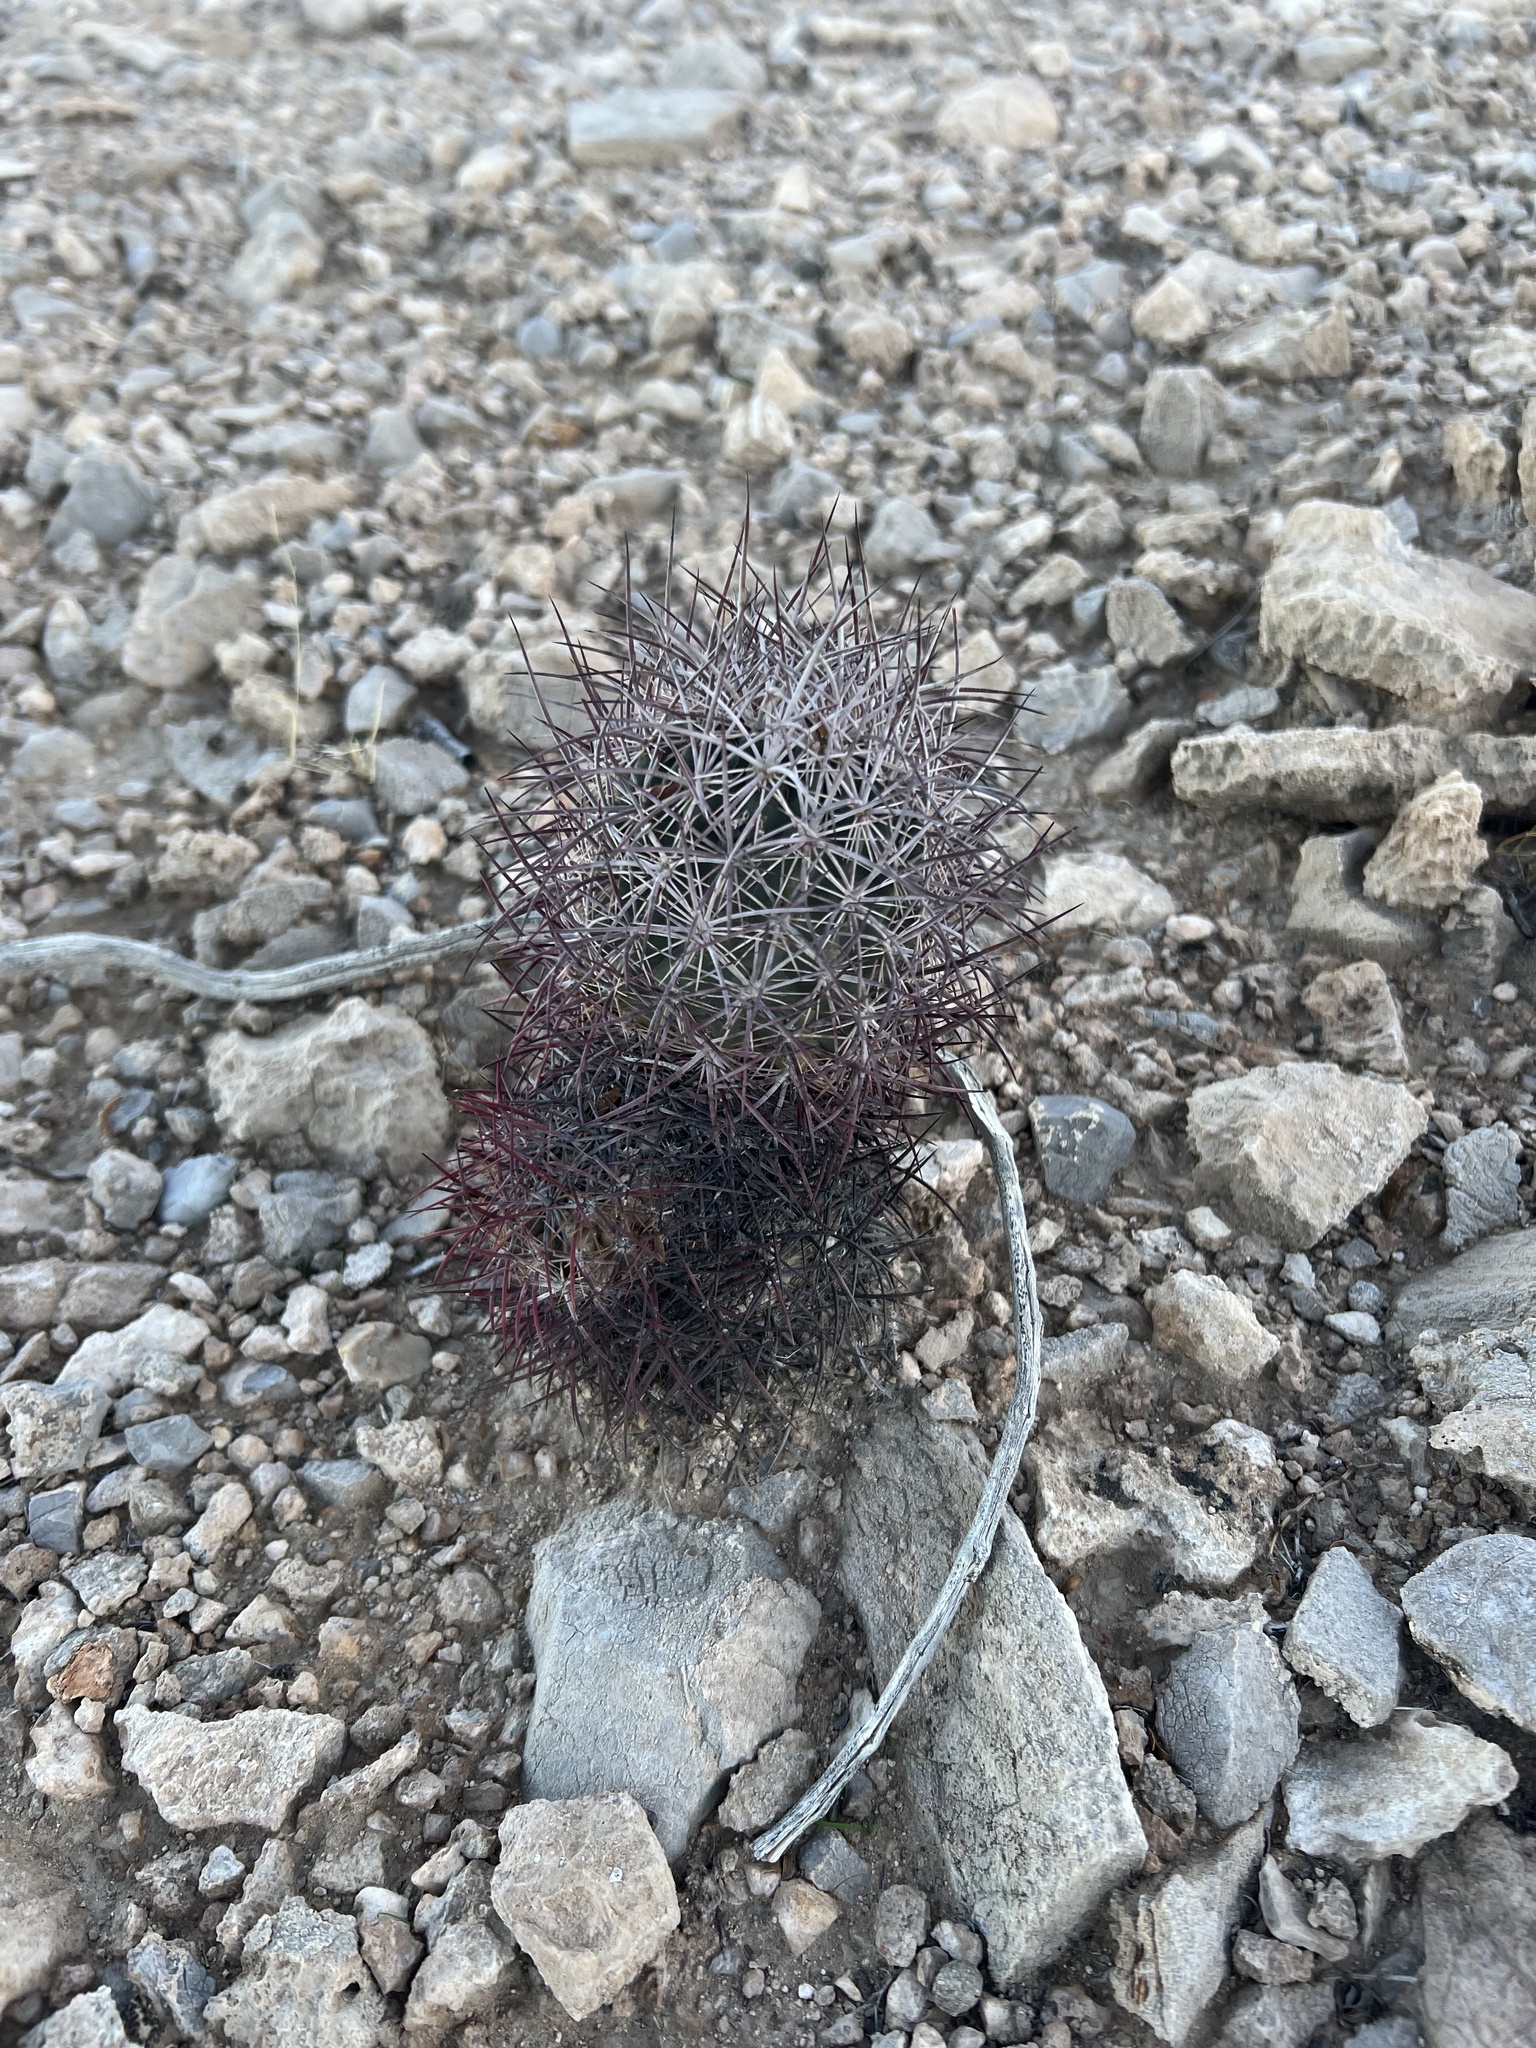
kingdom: Plantae
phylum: Tracheophyta
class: Magnoliopsida
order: Caryophyllales
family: Cactaceae
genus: Sclerocactus
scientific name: Sclerocactus johnsonii
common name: Eight-spine fishhook cactus
